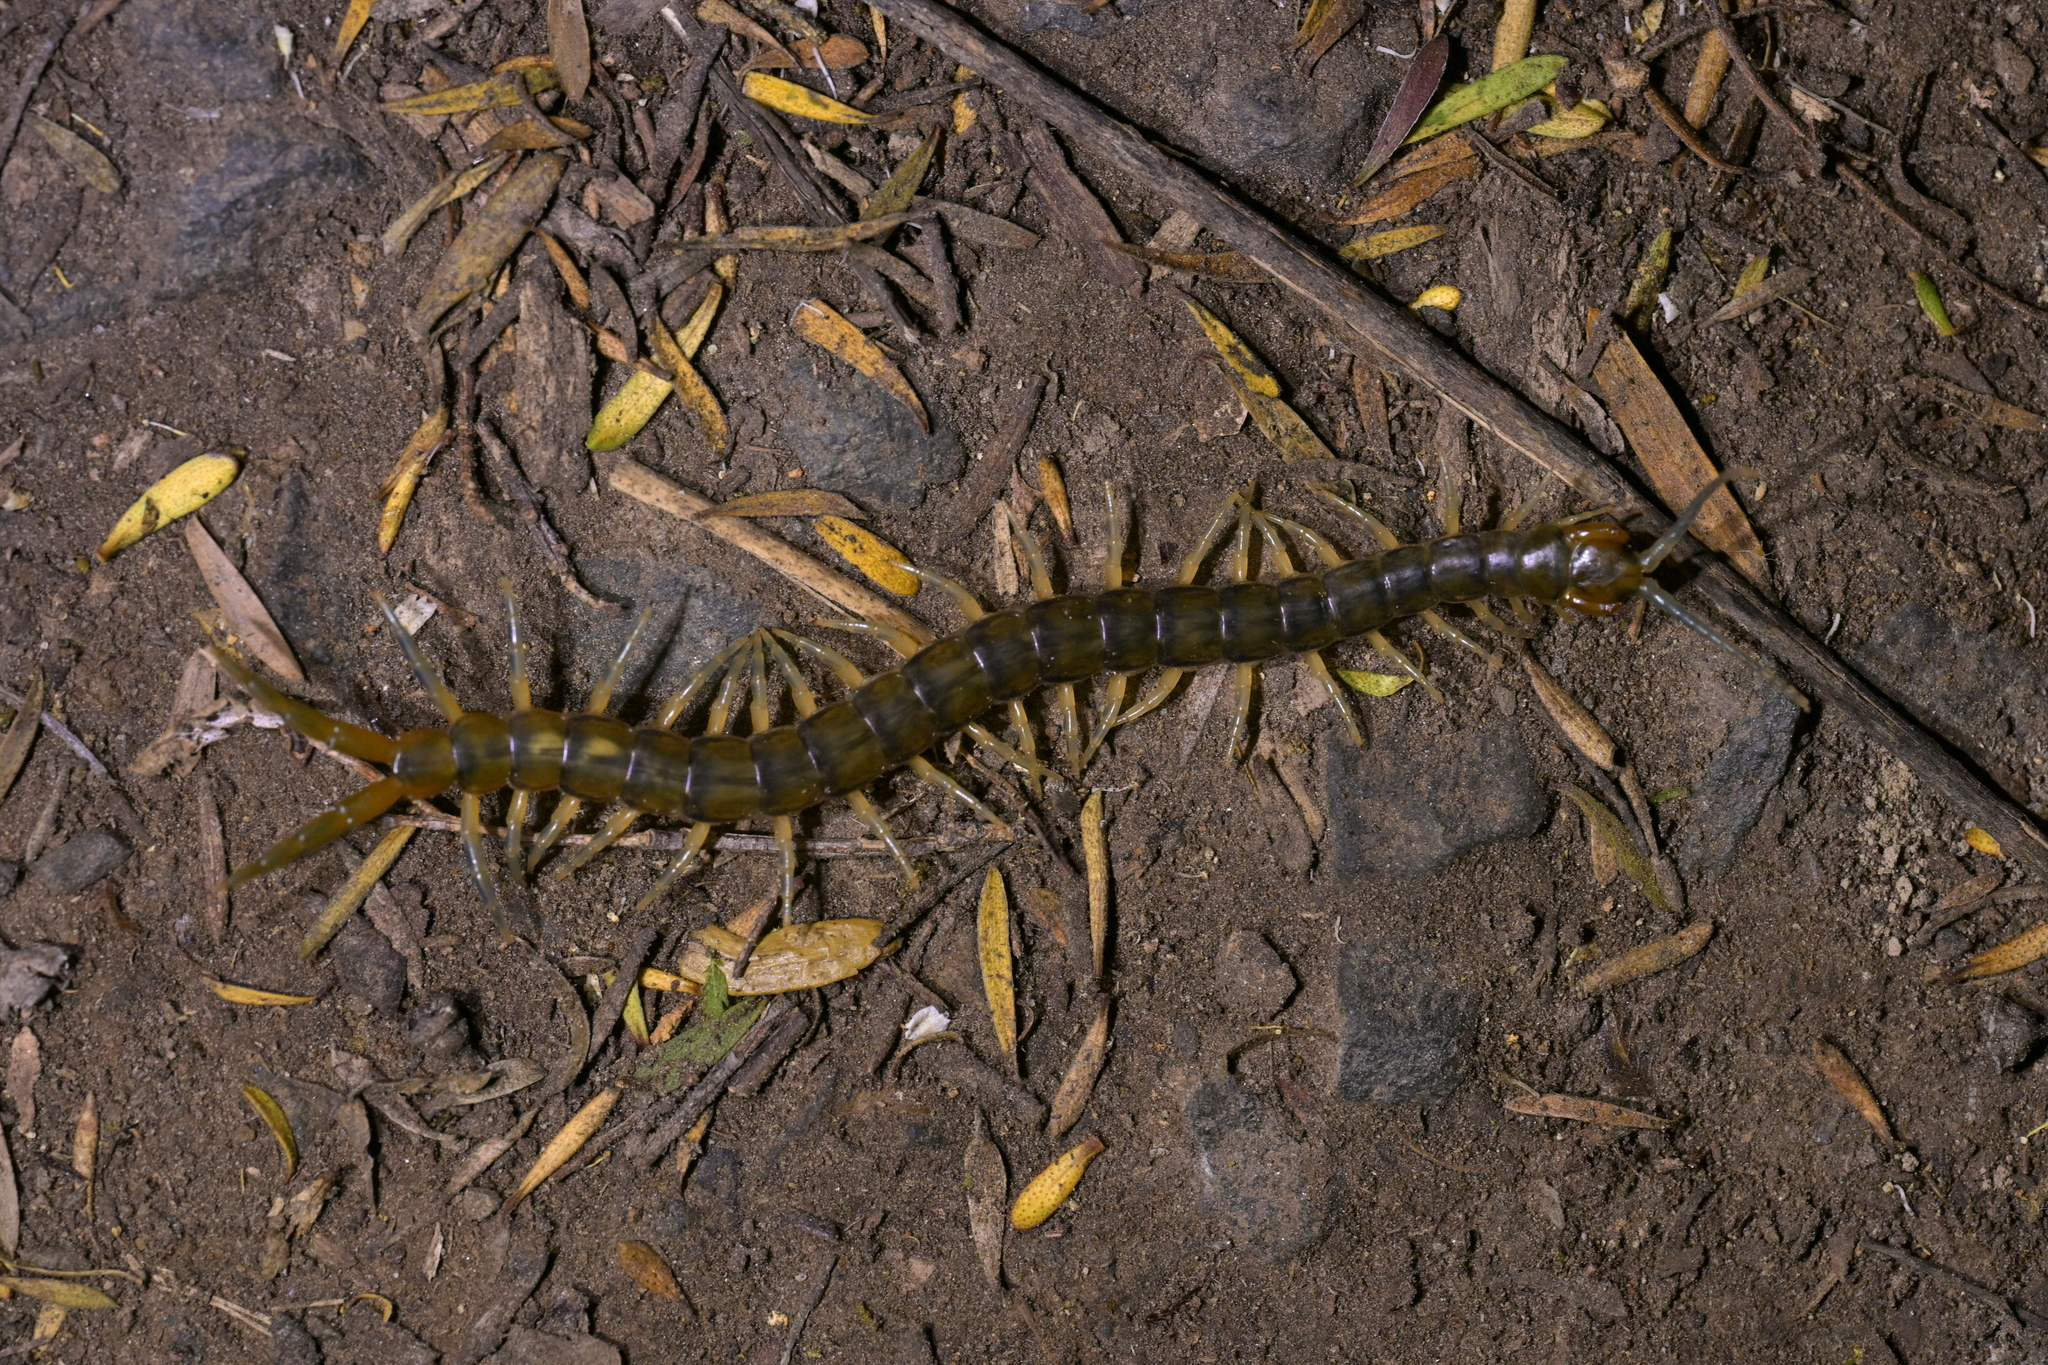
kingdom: Animalia
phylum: Arthropoda
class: Chilopoda
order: Scolopendromorpha
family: Scolopendridae
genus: Cormocephalus
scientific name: Cormocephalus rubriceps
